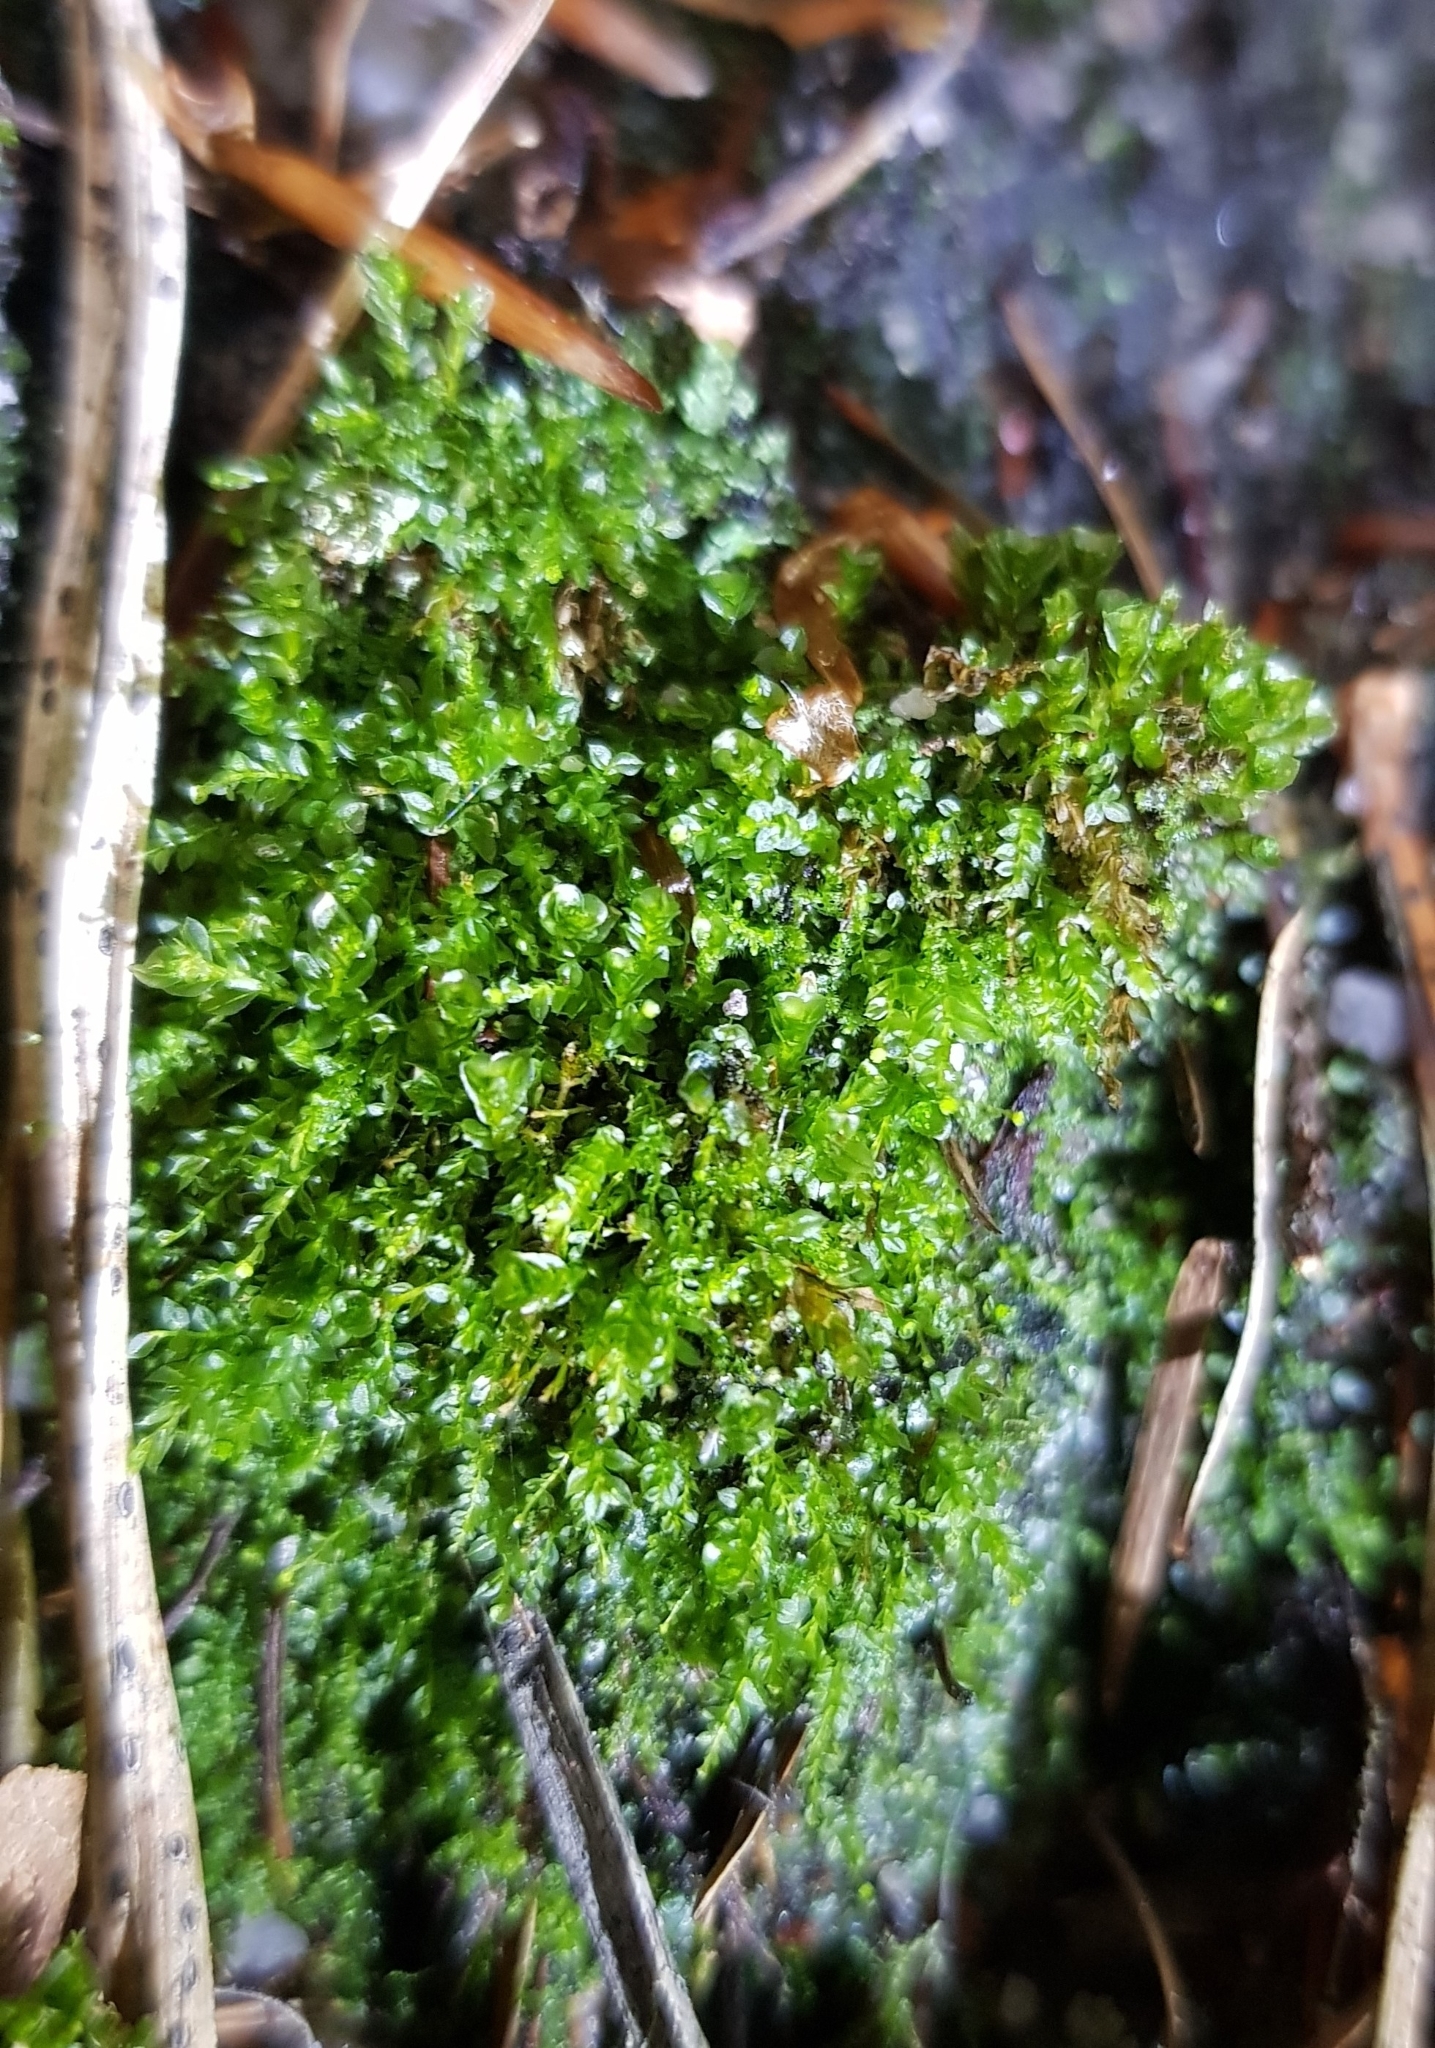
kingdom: Plantae
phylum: Bryophyta
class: Polytrichopsida
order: Tetraphidales
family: Tetraphidaceae
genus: Tetraphis
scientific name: Tetraphis pellucida
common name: Common four-toothed moss
